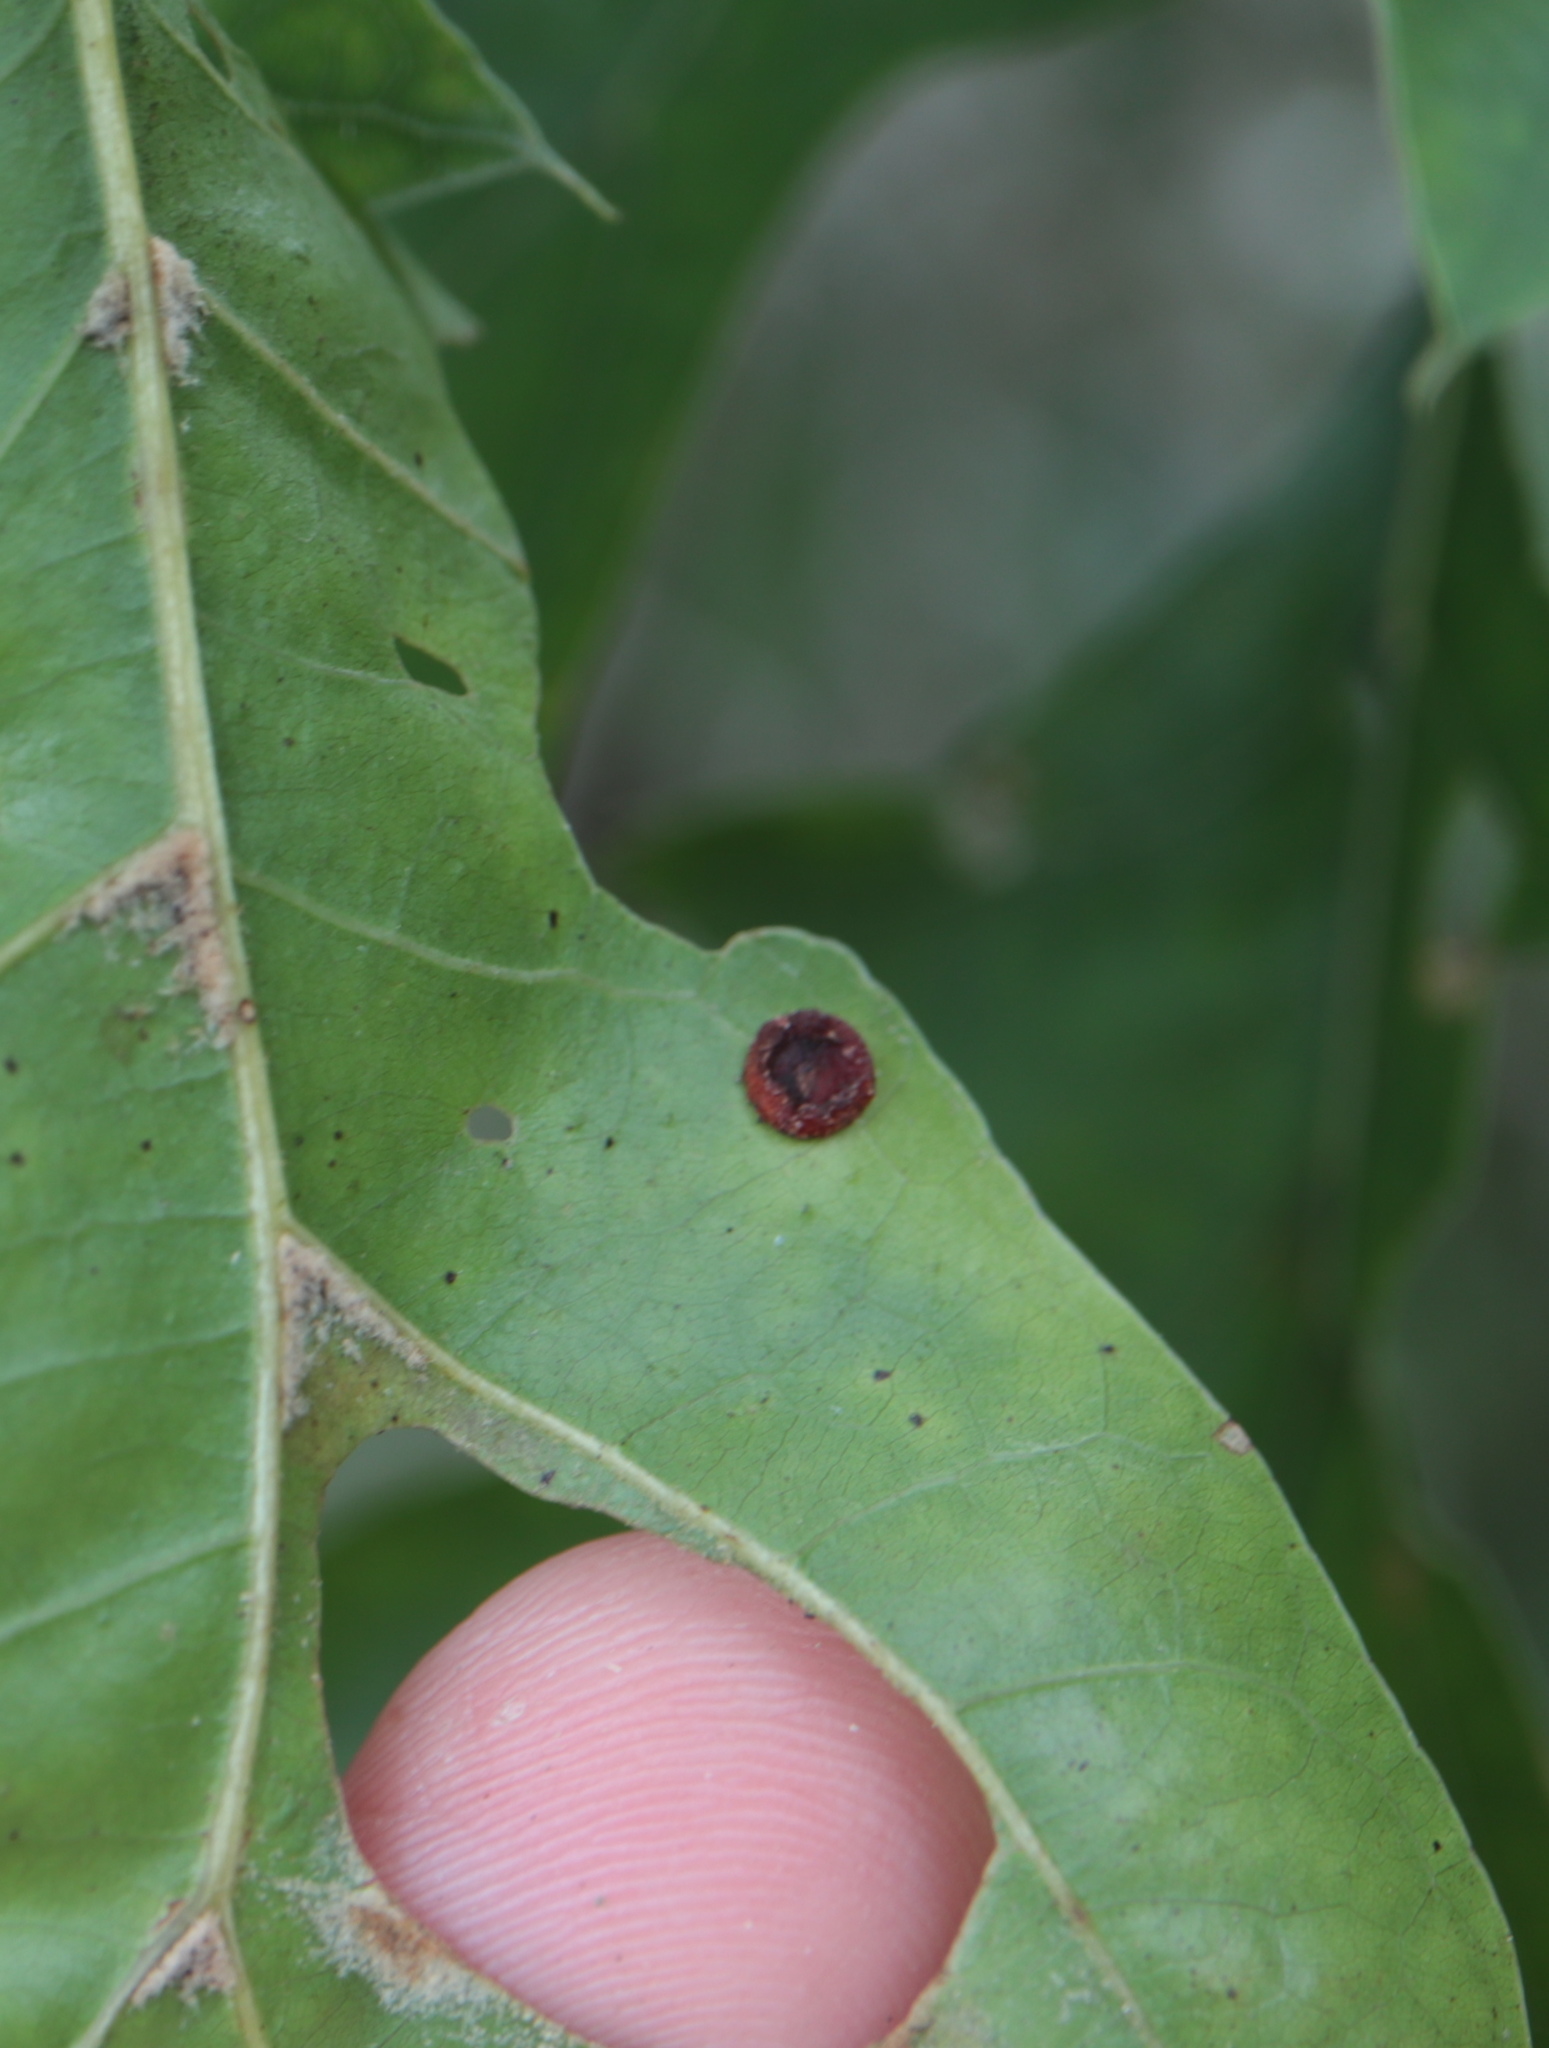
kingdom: Animalia
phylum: Arthropoda
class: Insecta
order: Hymenoptera
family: Cynipidae
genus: Dryocosmus
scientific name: Dryocosmus
